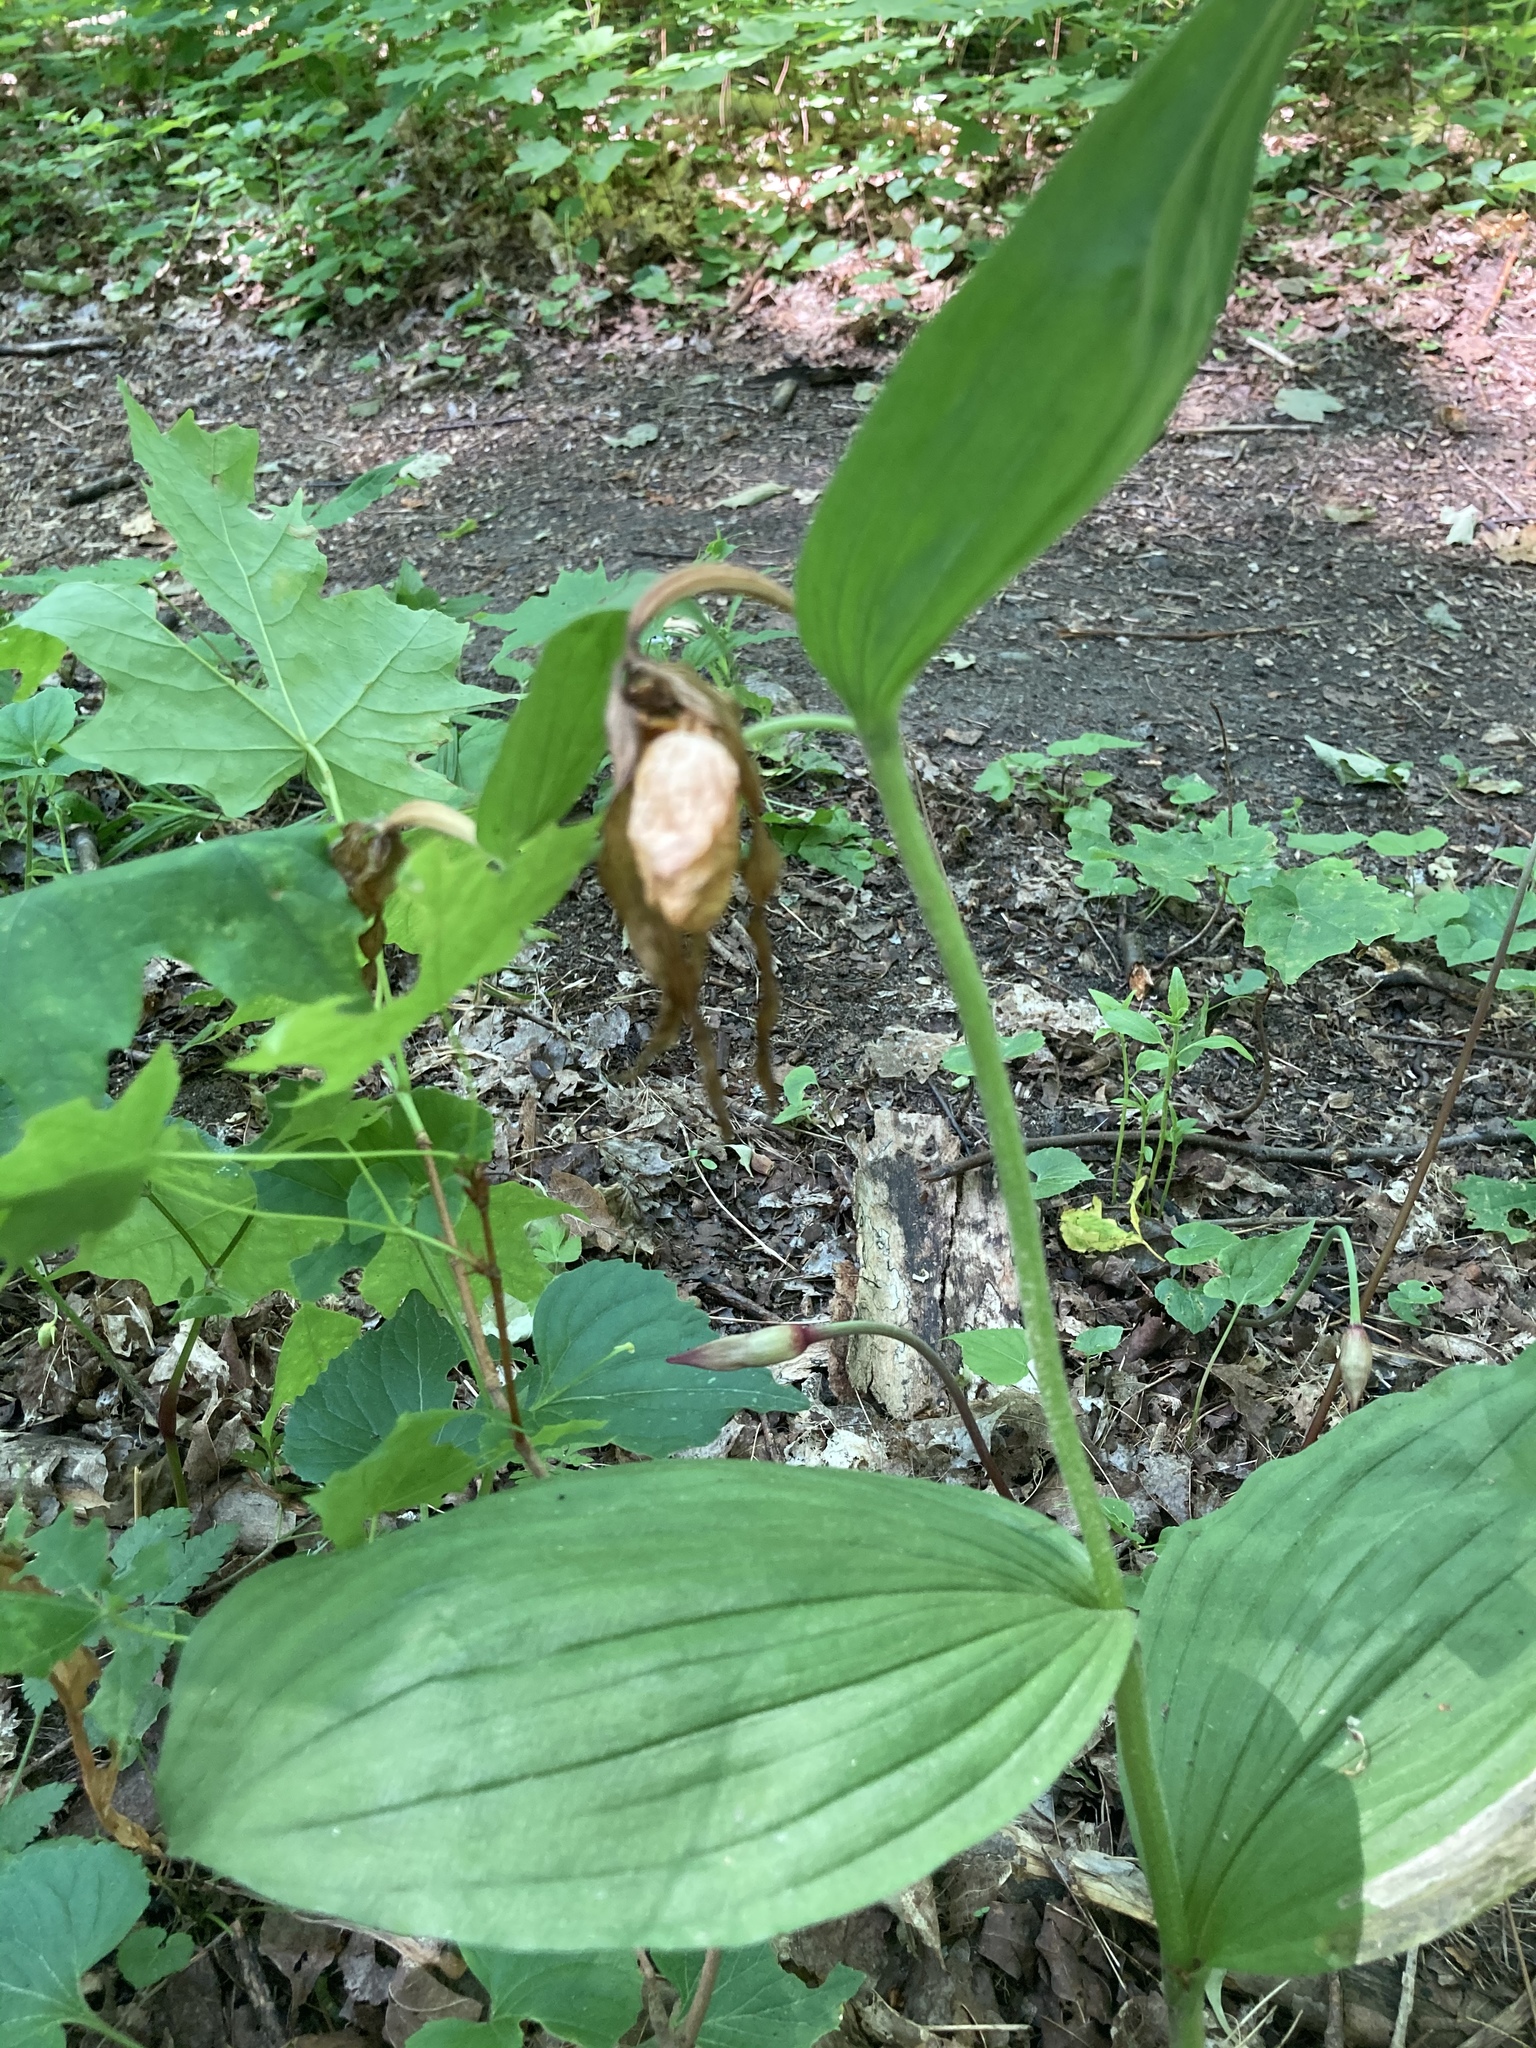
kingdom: Plantae
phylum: Tracheophyta
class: Liliopsida
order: Asparagales
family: Orchidaceae
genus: Cypripedium
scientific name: Cypripedium parviflorum
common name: American yellow lady's-slipper
